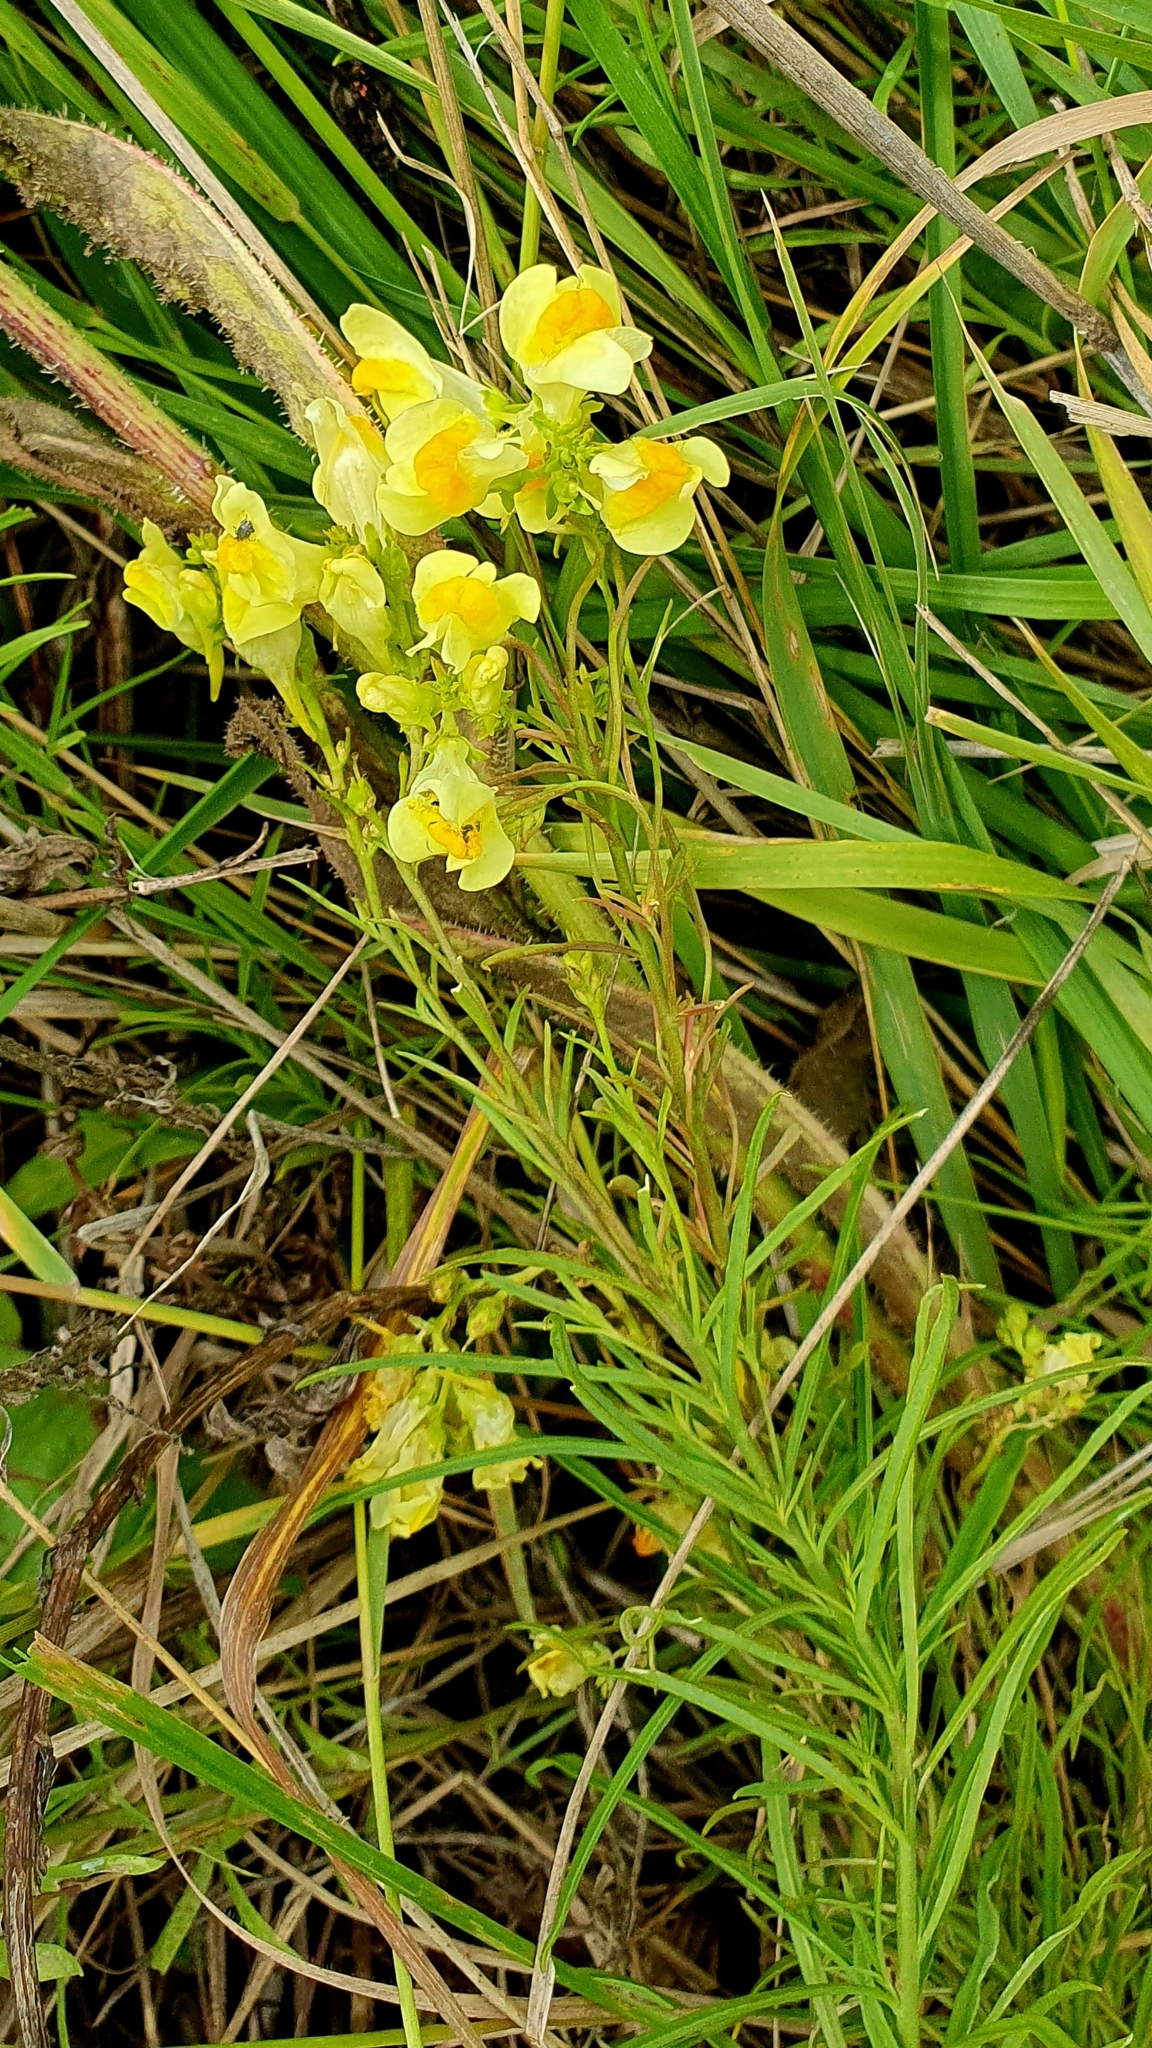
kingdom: Plantae
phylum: Tracheophyta
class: Magnoliopsida
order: Lamiales
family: Plantaginaceae
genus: Linaria
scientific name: Linaria vulgaris
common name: Butter and eggs
